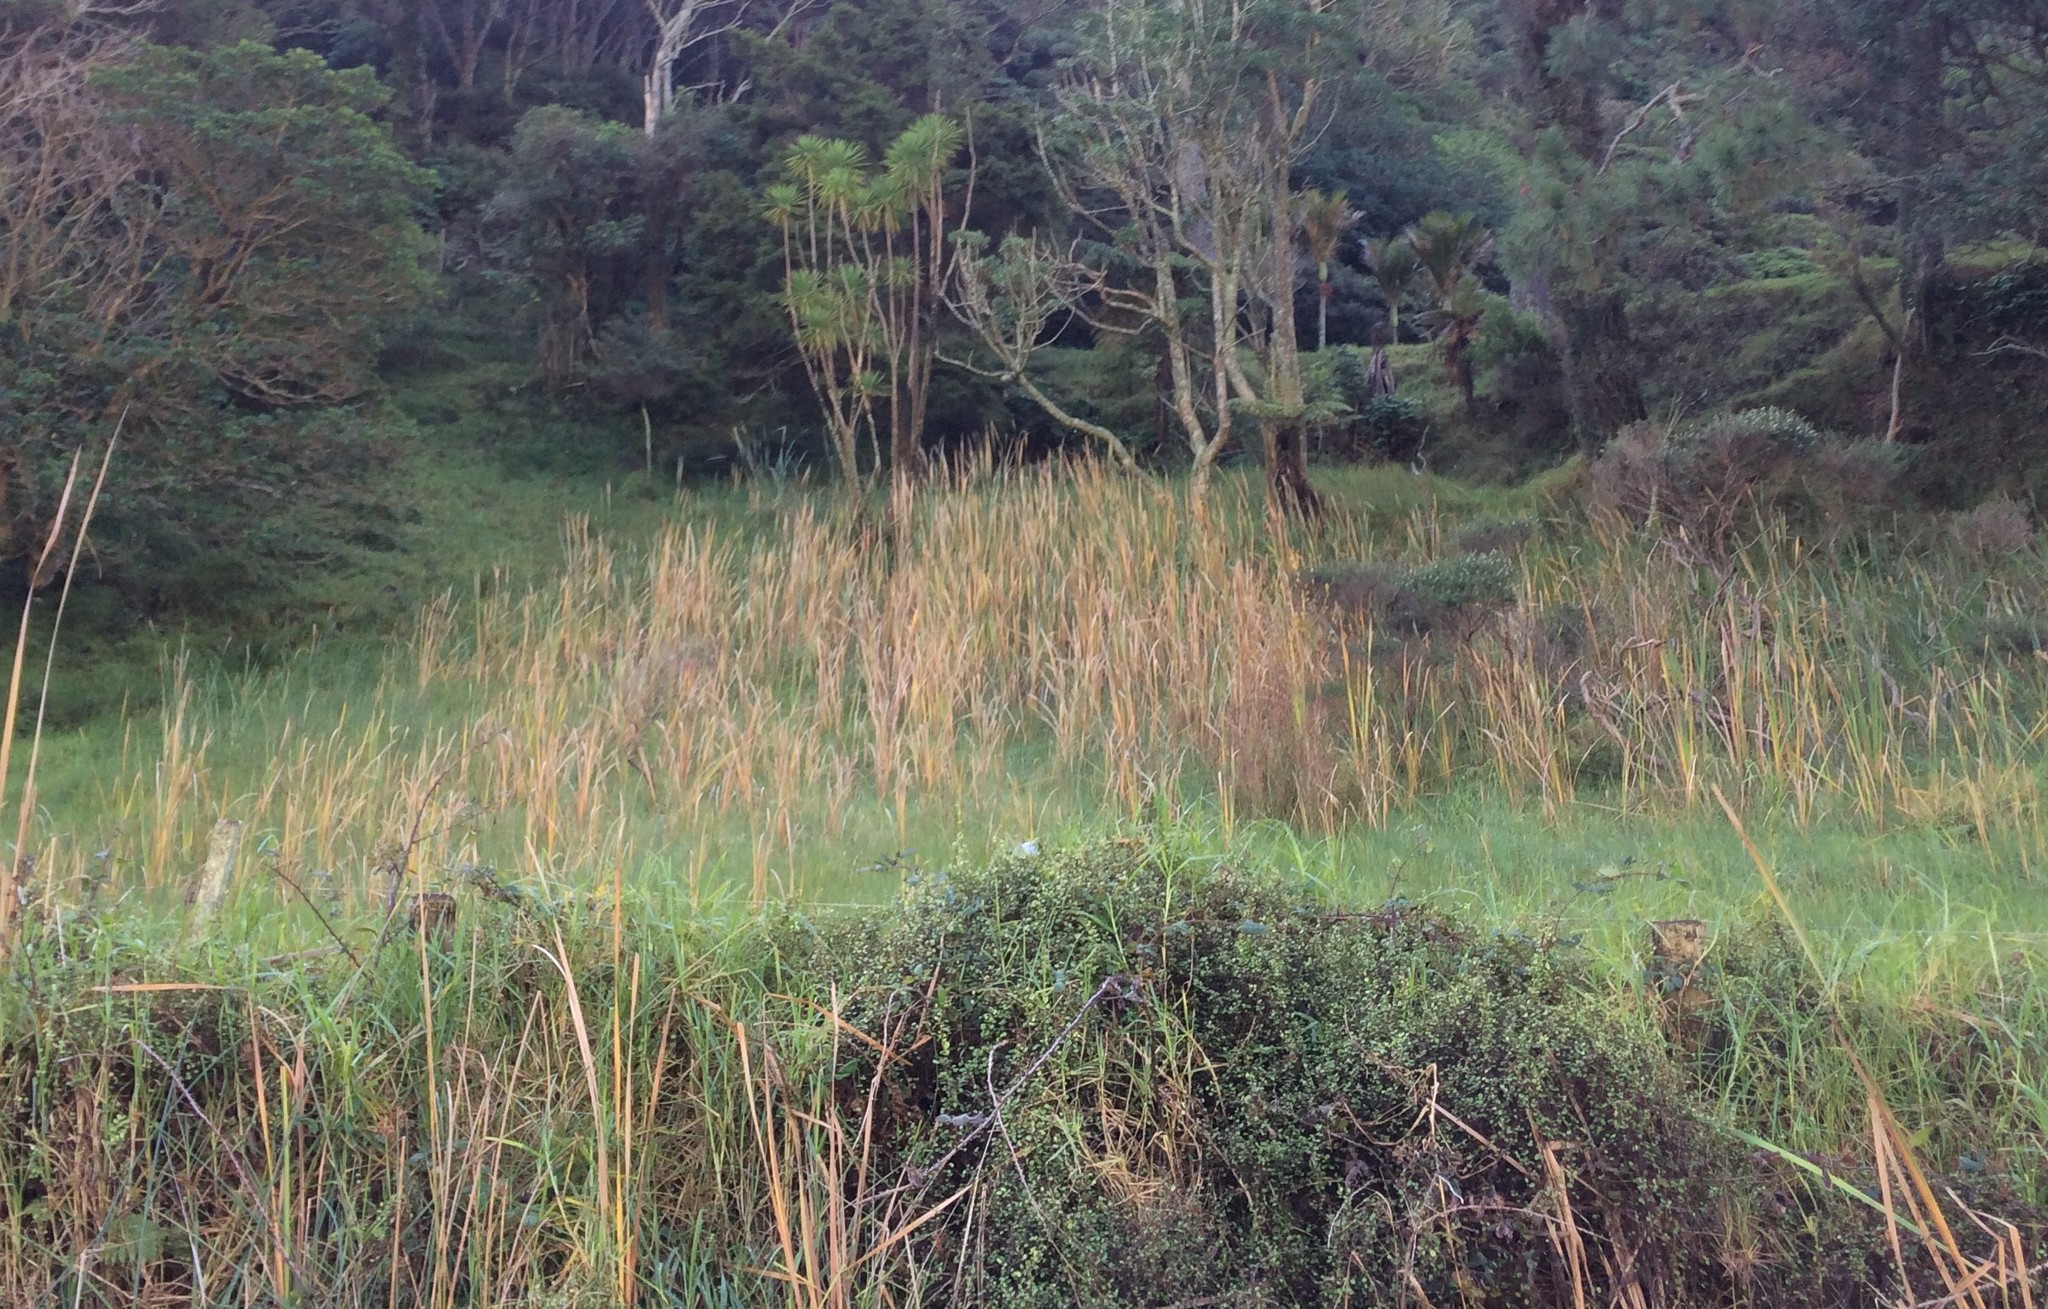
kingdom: Plantae
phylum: Tracheophyta
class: Liliopsida
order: Poales
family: Typhaceae
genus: Typha
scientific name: Typha orientalis
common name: Bullrush
